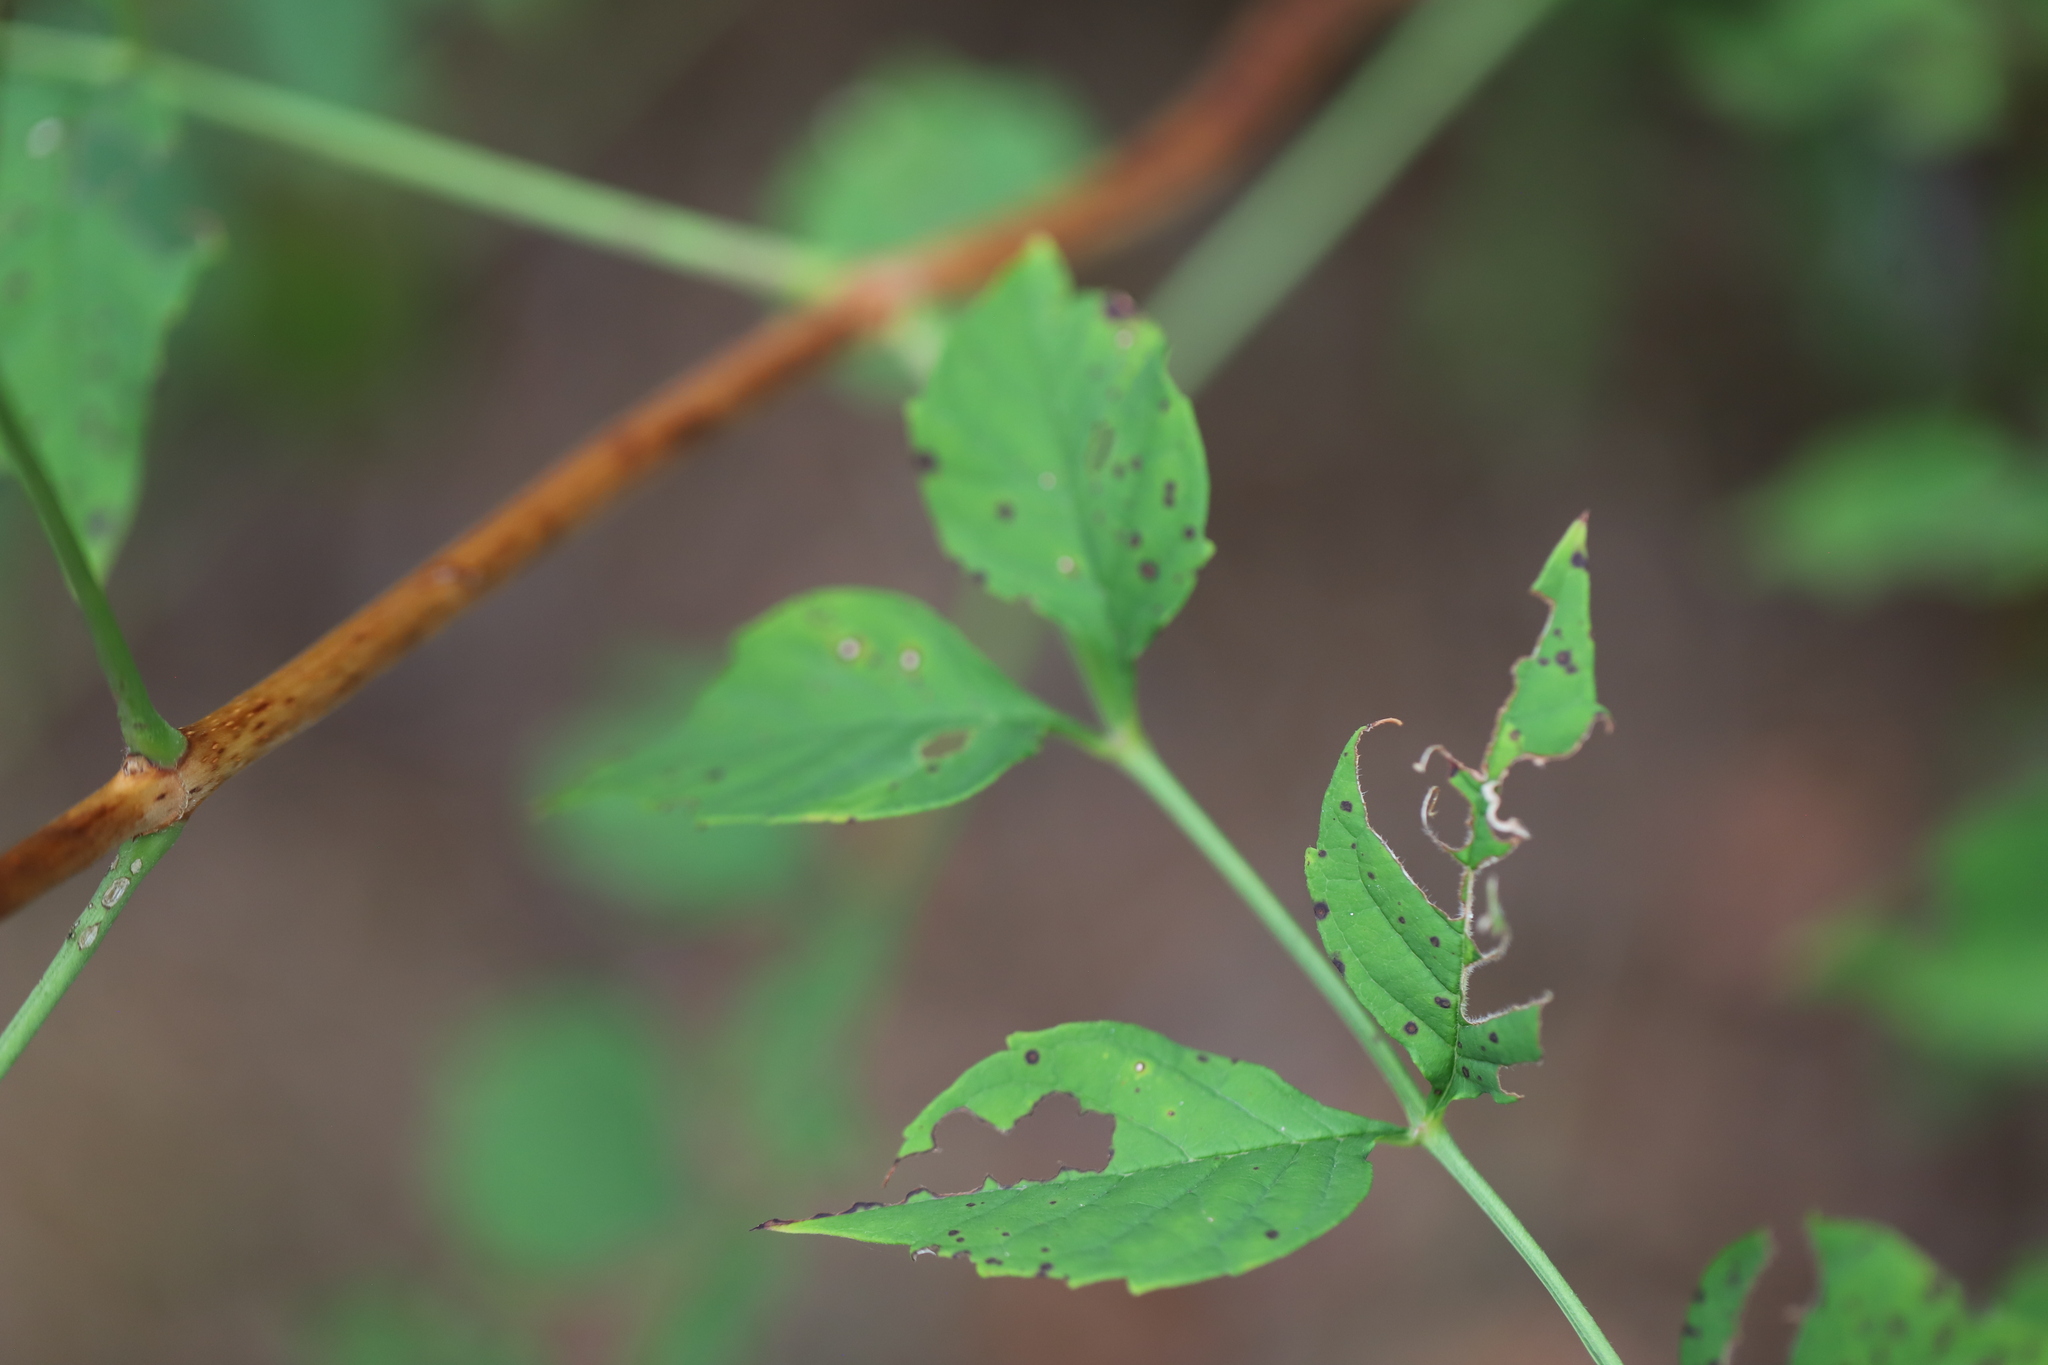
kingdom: Plantae
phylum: Tracheophyta
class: Magnoliopsida
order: Lamiales
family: Bignoniaceae
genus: Campsis
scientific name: Campsis radicans
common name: Trumpet-creeper
